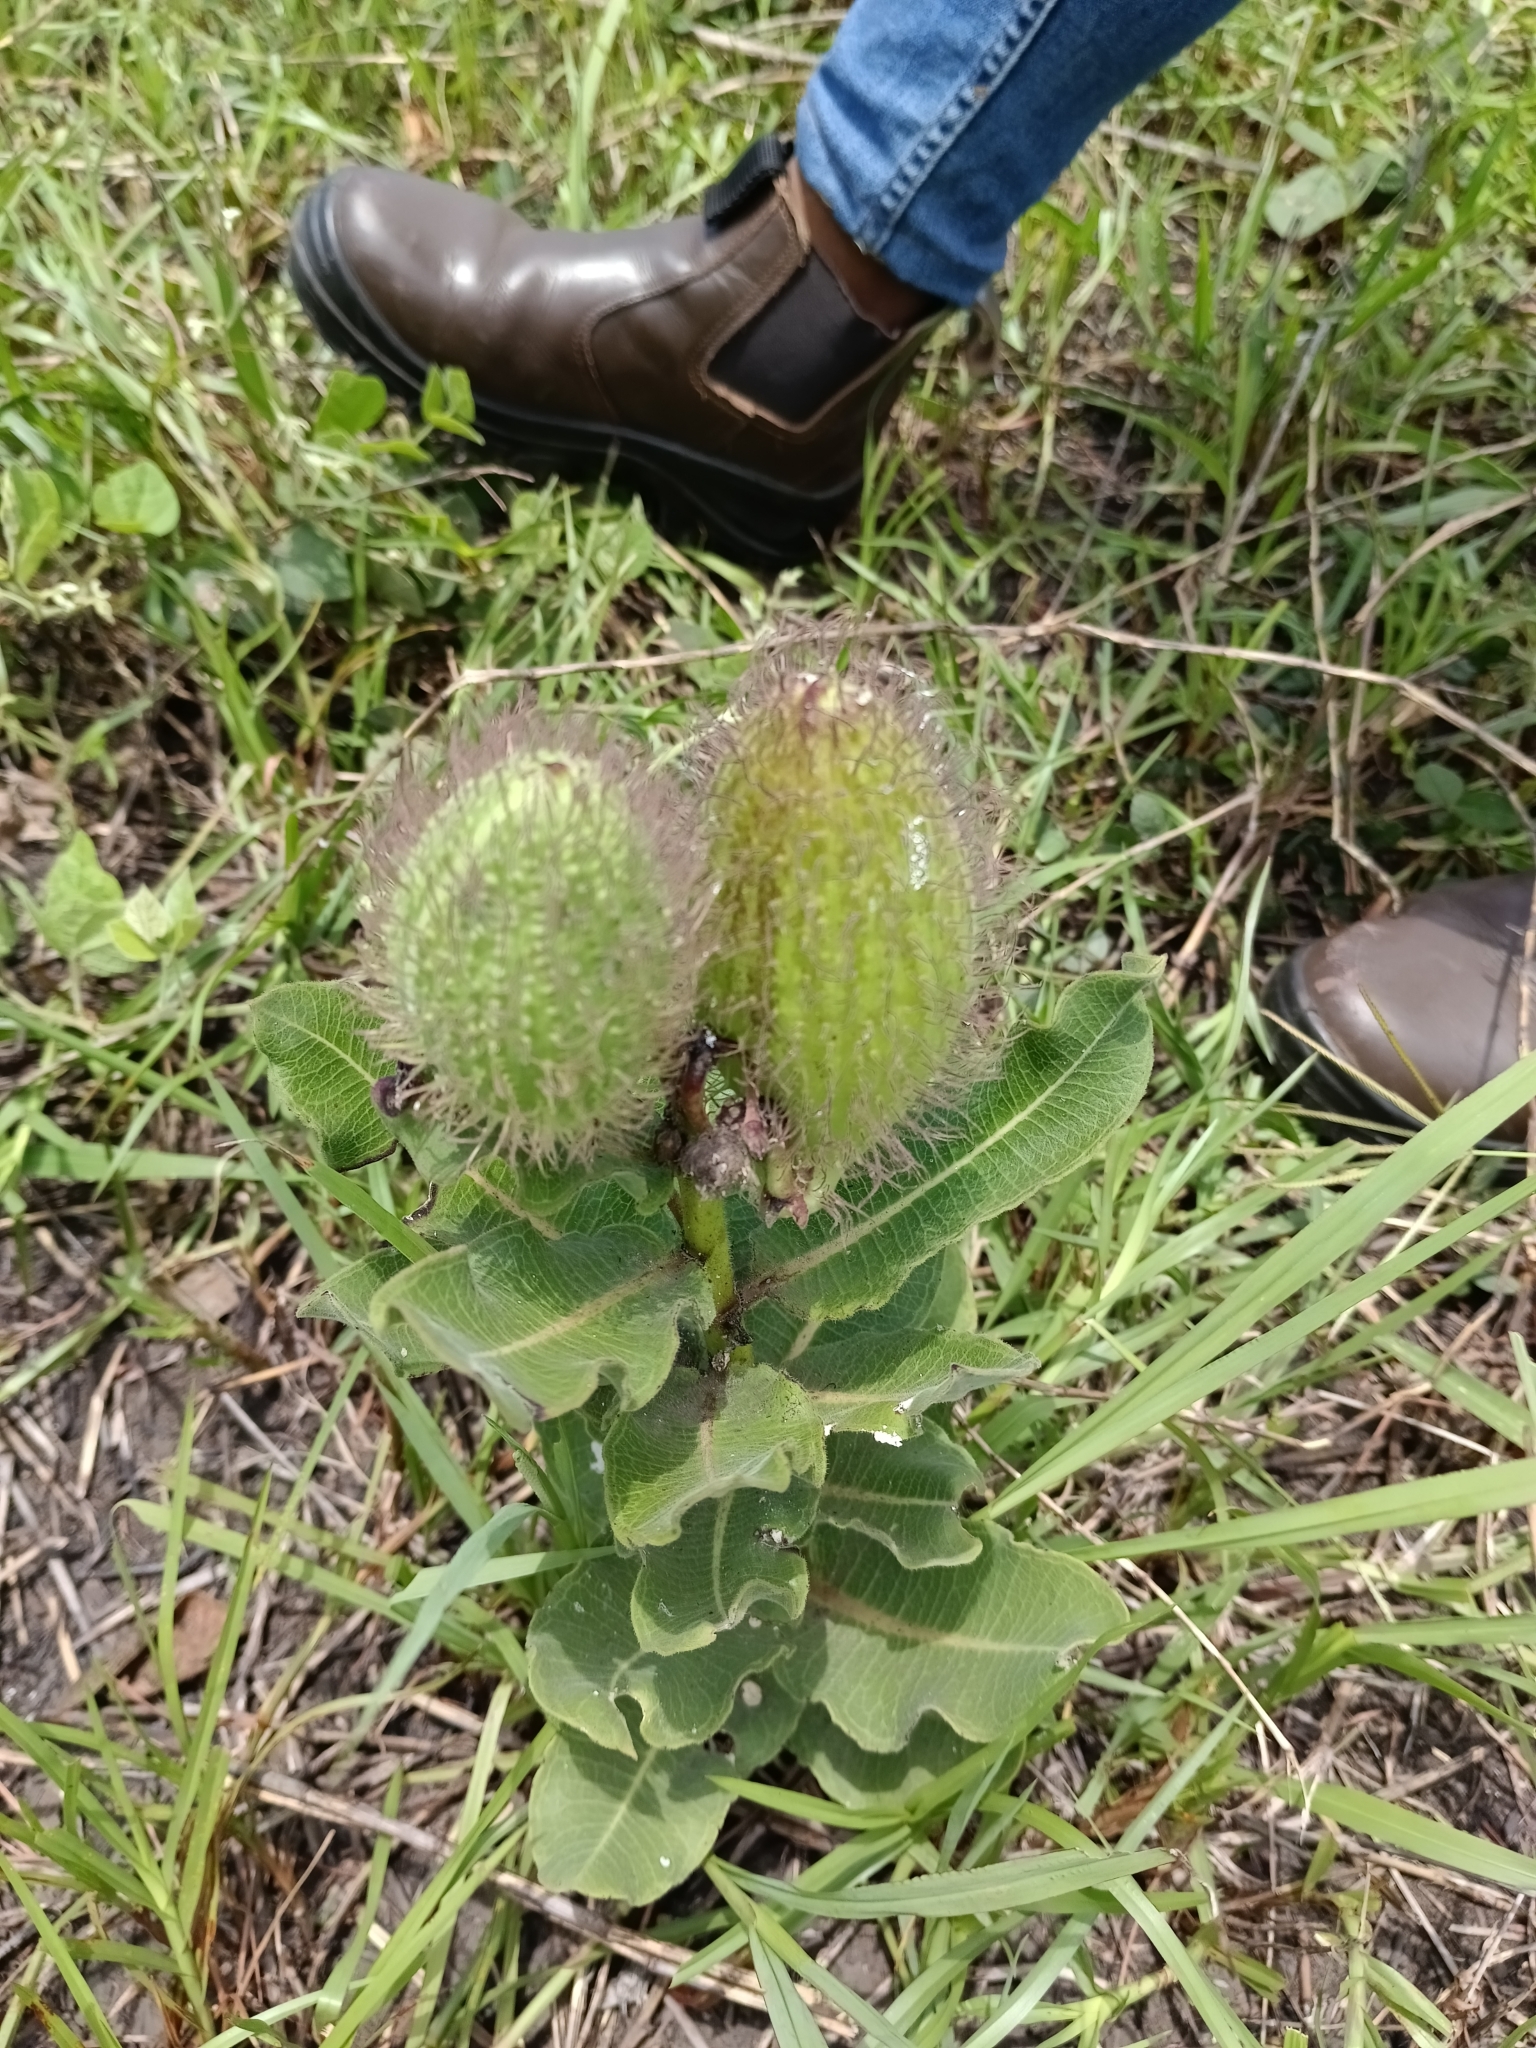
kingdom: Plantae
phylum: Tracheophyta
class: Magnoliopsida
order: Gentianales
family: Apocynaceae
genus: Xysmalobium
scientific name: Xysmalobium undulatum
